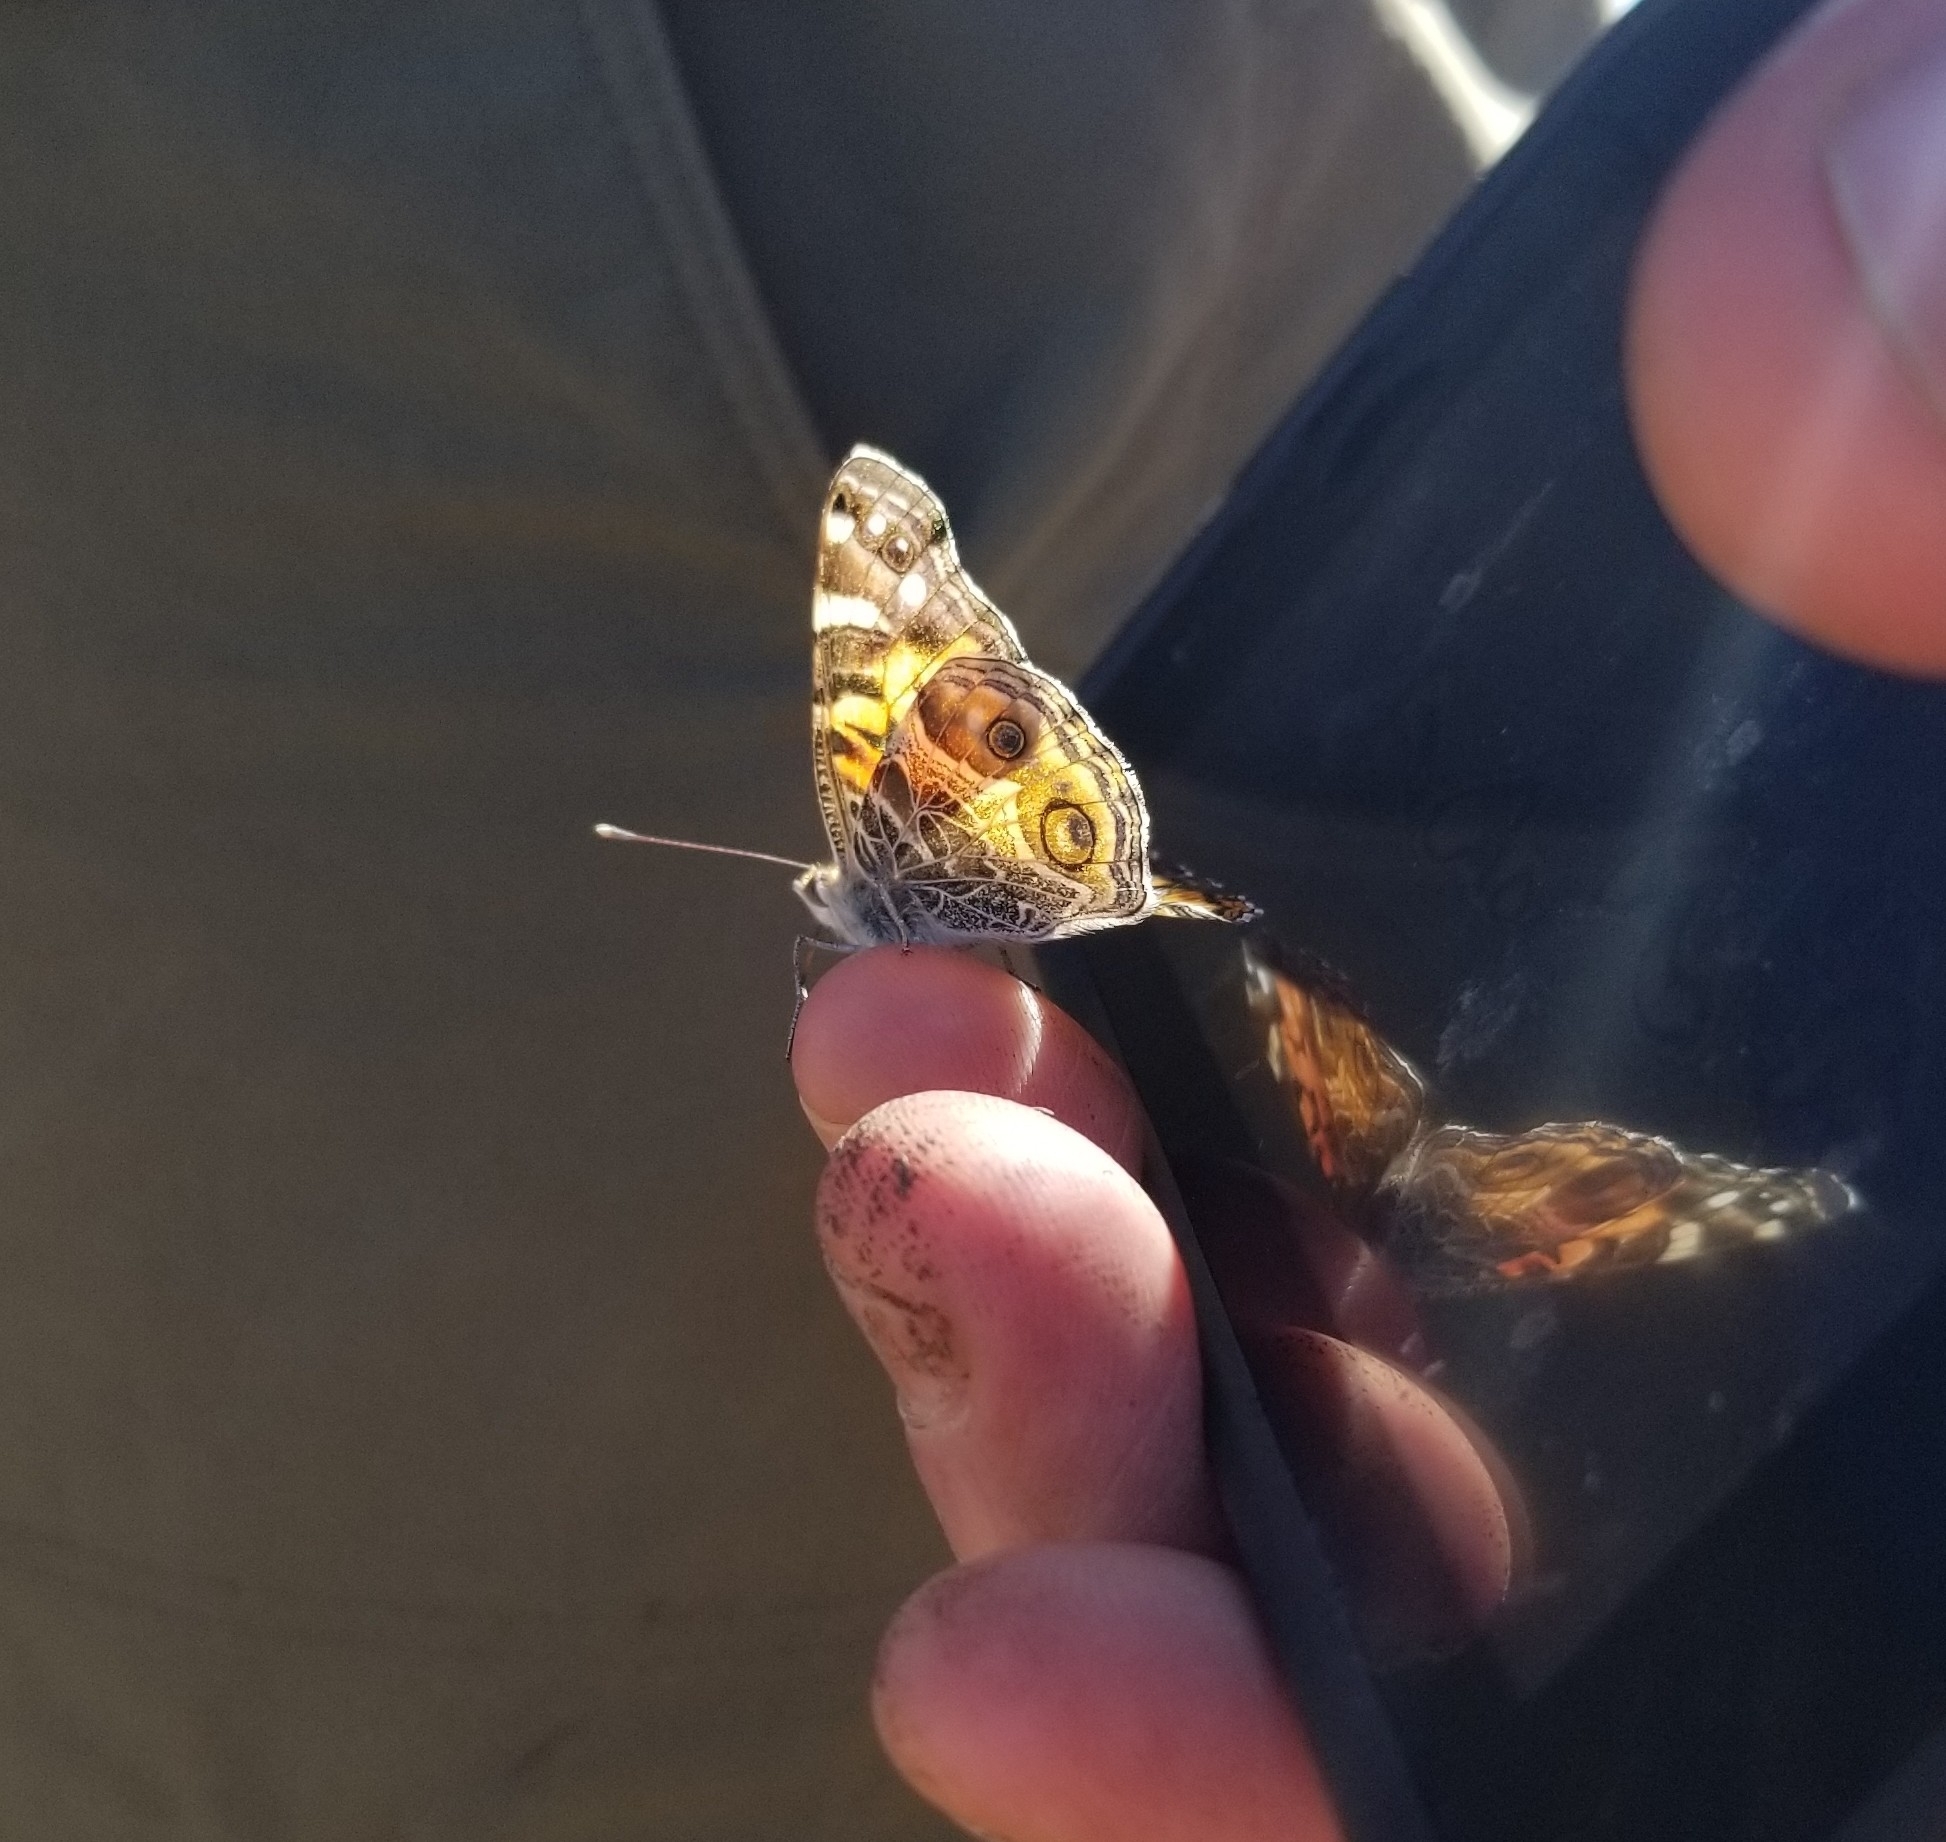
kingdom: Animalia
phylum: Arthropoda
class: Insecta
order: Lepidoptera
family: Nymphalidae
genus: Vanessa
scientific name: Vanessa virginiensis
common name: American lady
